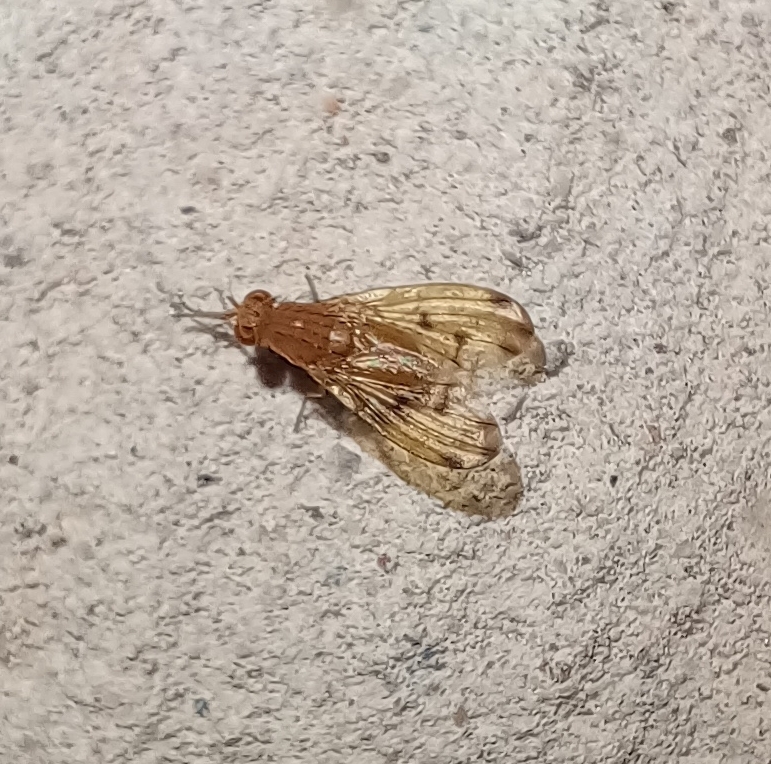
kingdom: Animalia
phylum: Arthropoda
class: Insecta
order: Diptera
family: Lauxaniidae
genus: Meiosimyza
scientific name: Meiosimyza decempunctata
